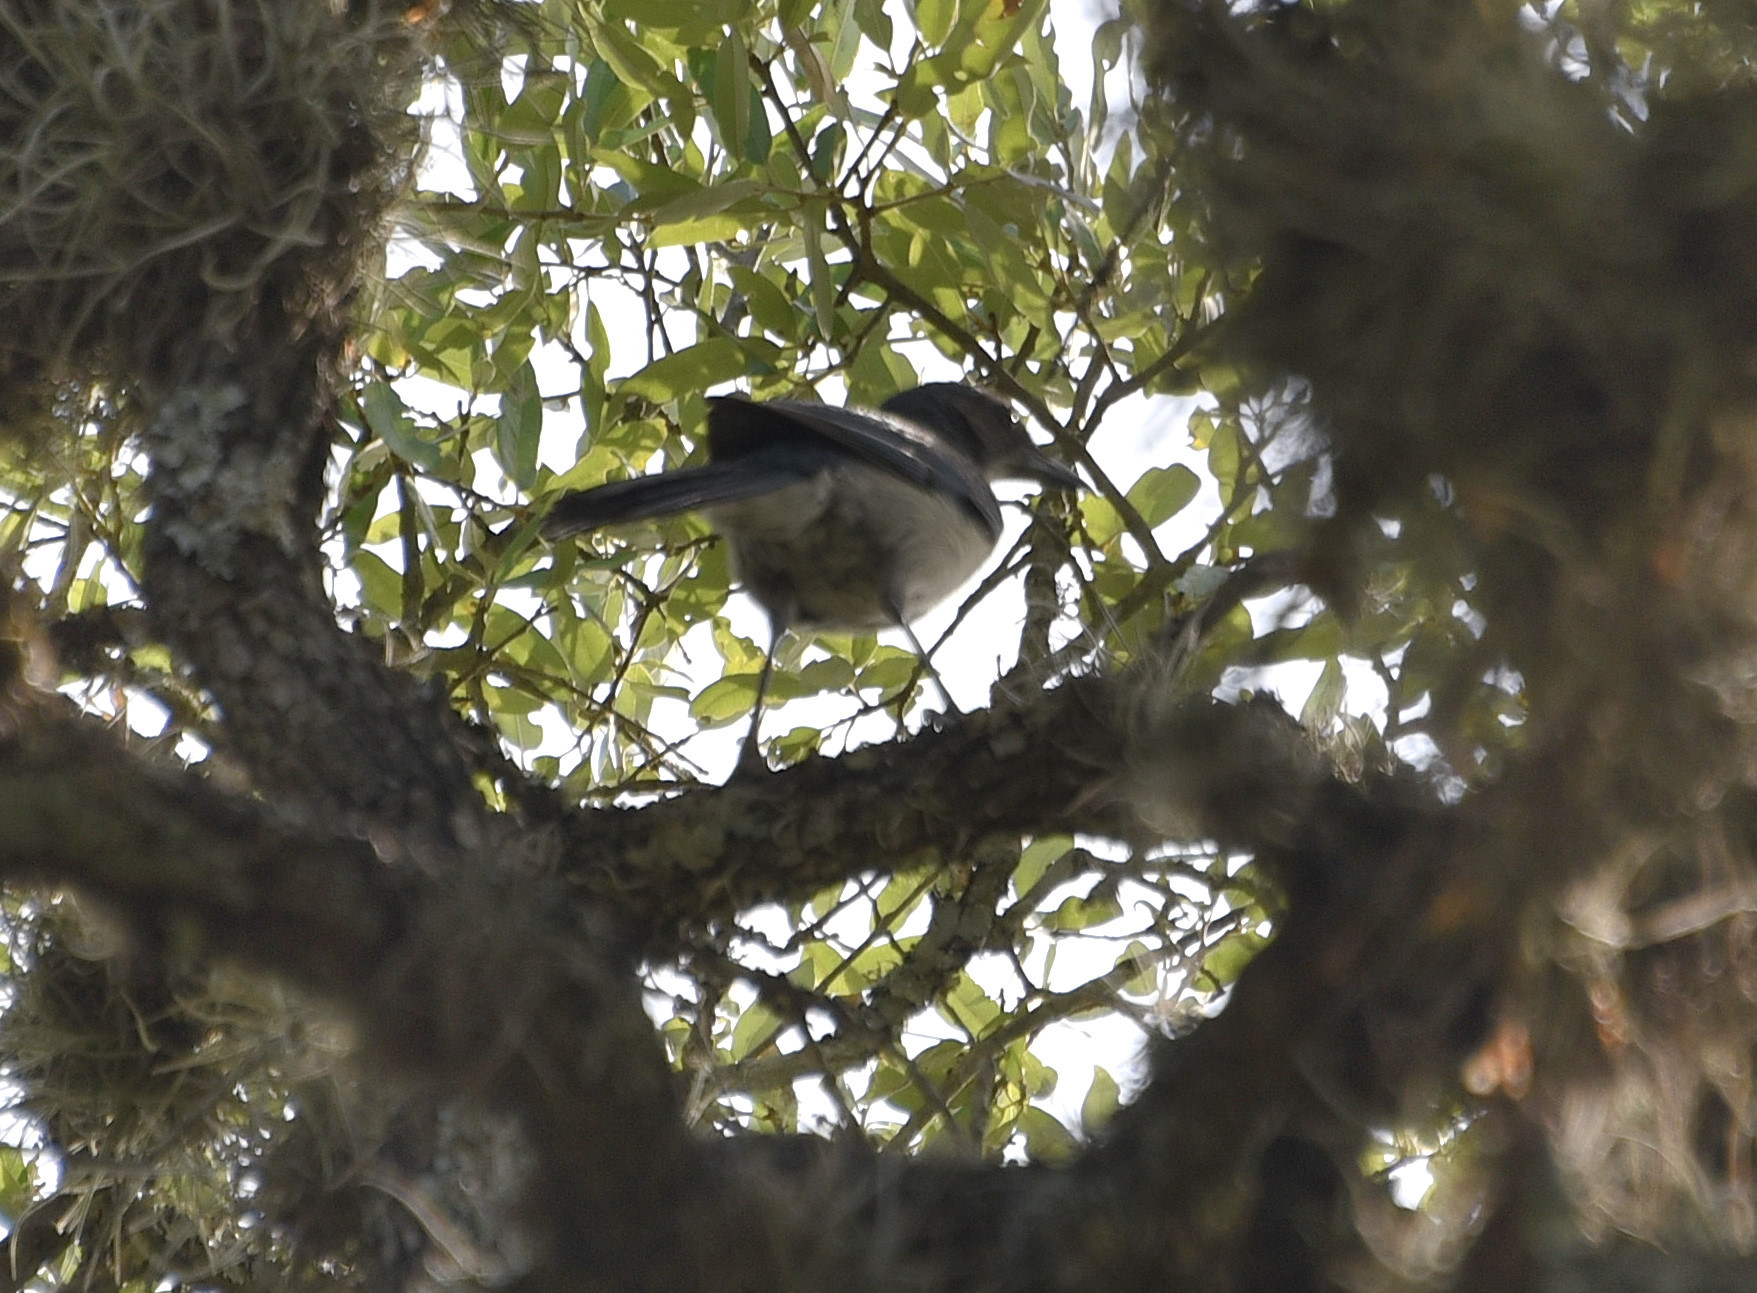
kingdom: Animalia
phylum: Chordata
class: Aves
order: Passeriformes
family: Corvidae
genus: Aphelocoma
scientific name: Aphelocoma woodhouseii
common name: Woodhouse's scrub-jay
